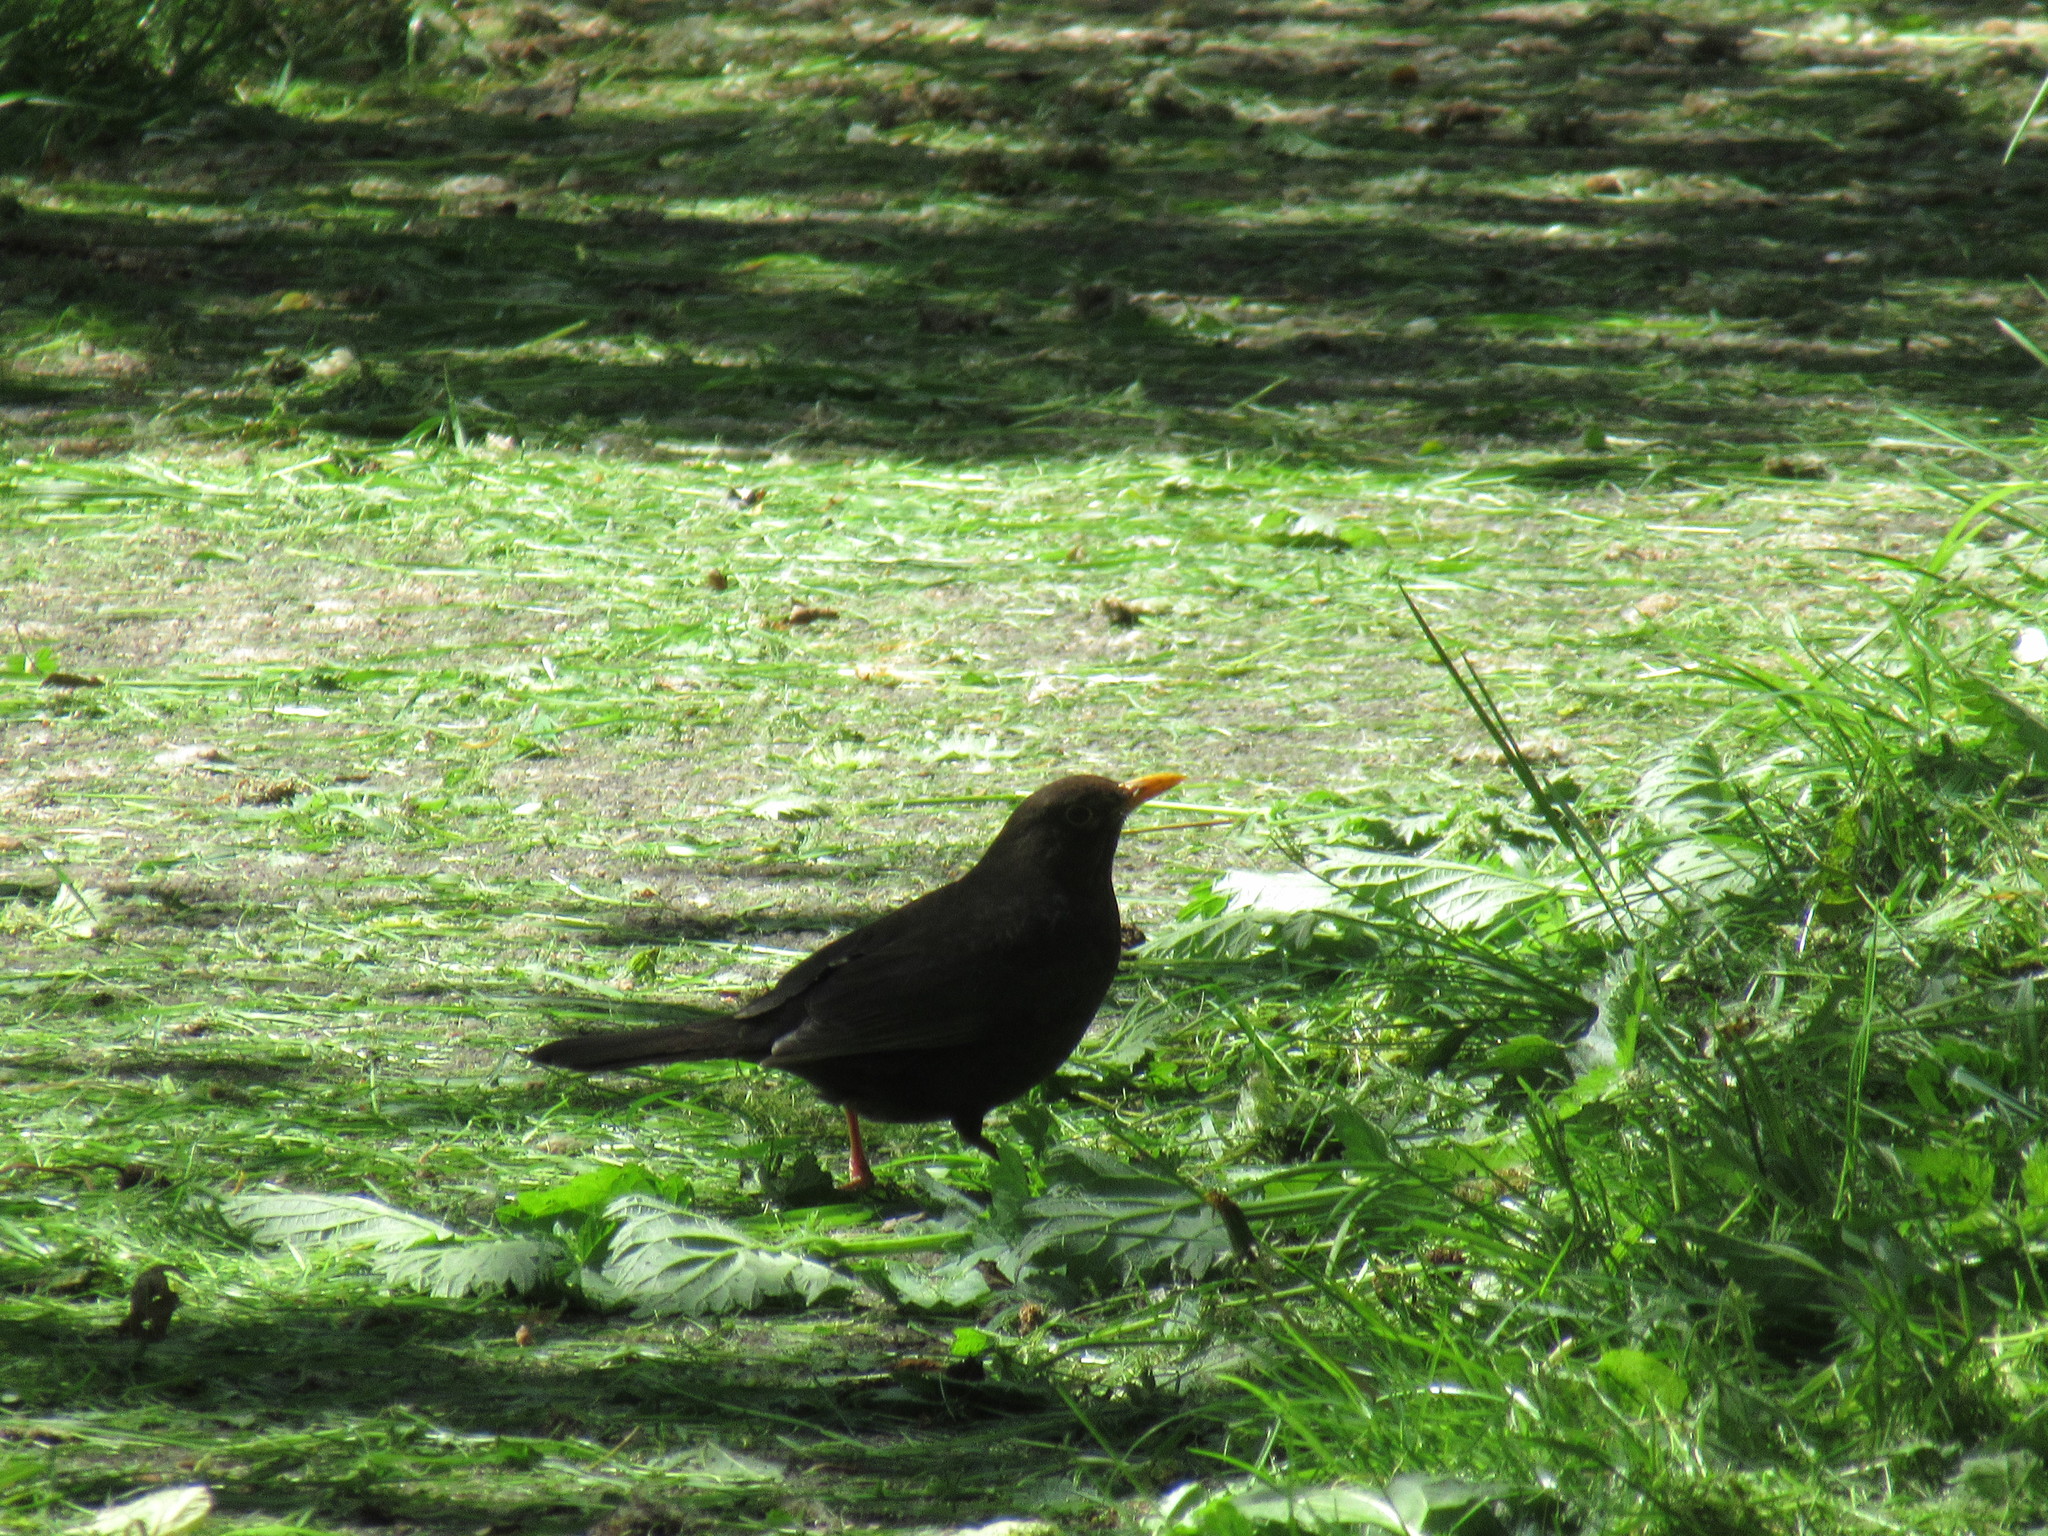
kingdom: Animalia
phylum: Chordata
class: Aves
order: Passeriformes
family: Turdidae
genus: Turdus
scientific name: Turdus merula
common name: Common blackbird
